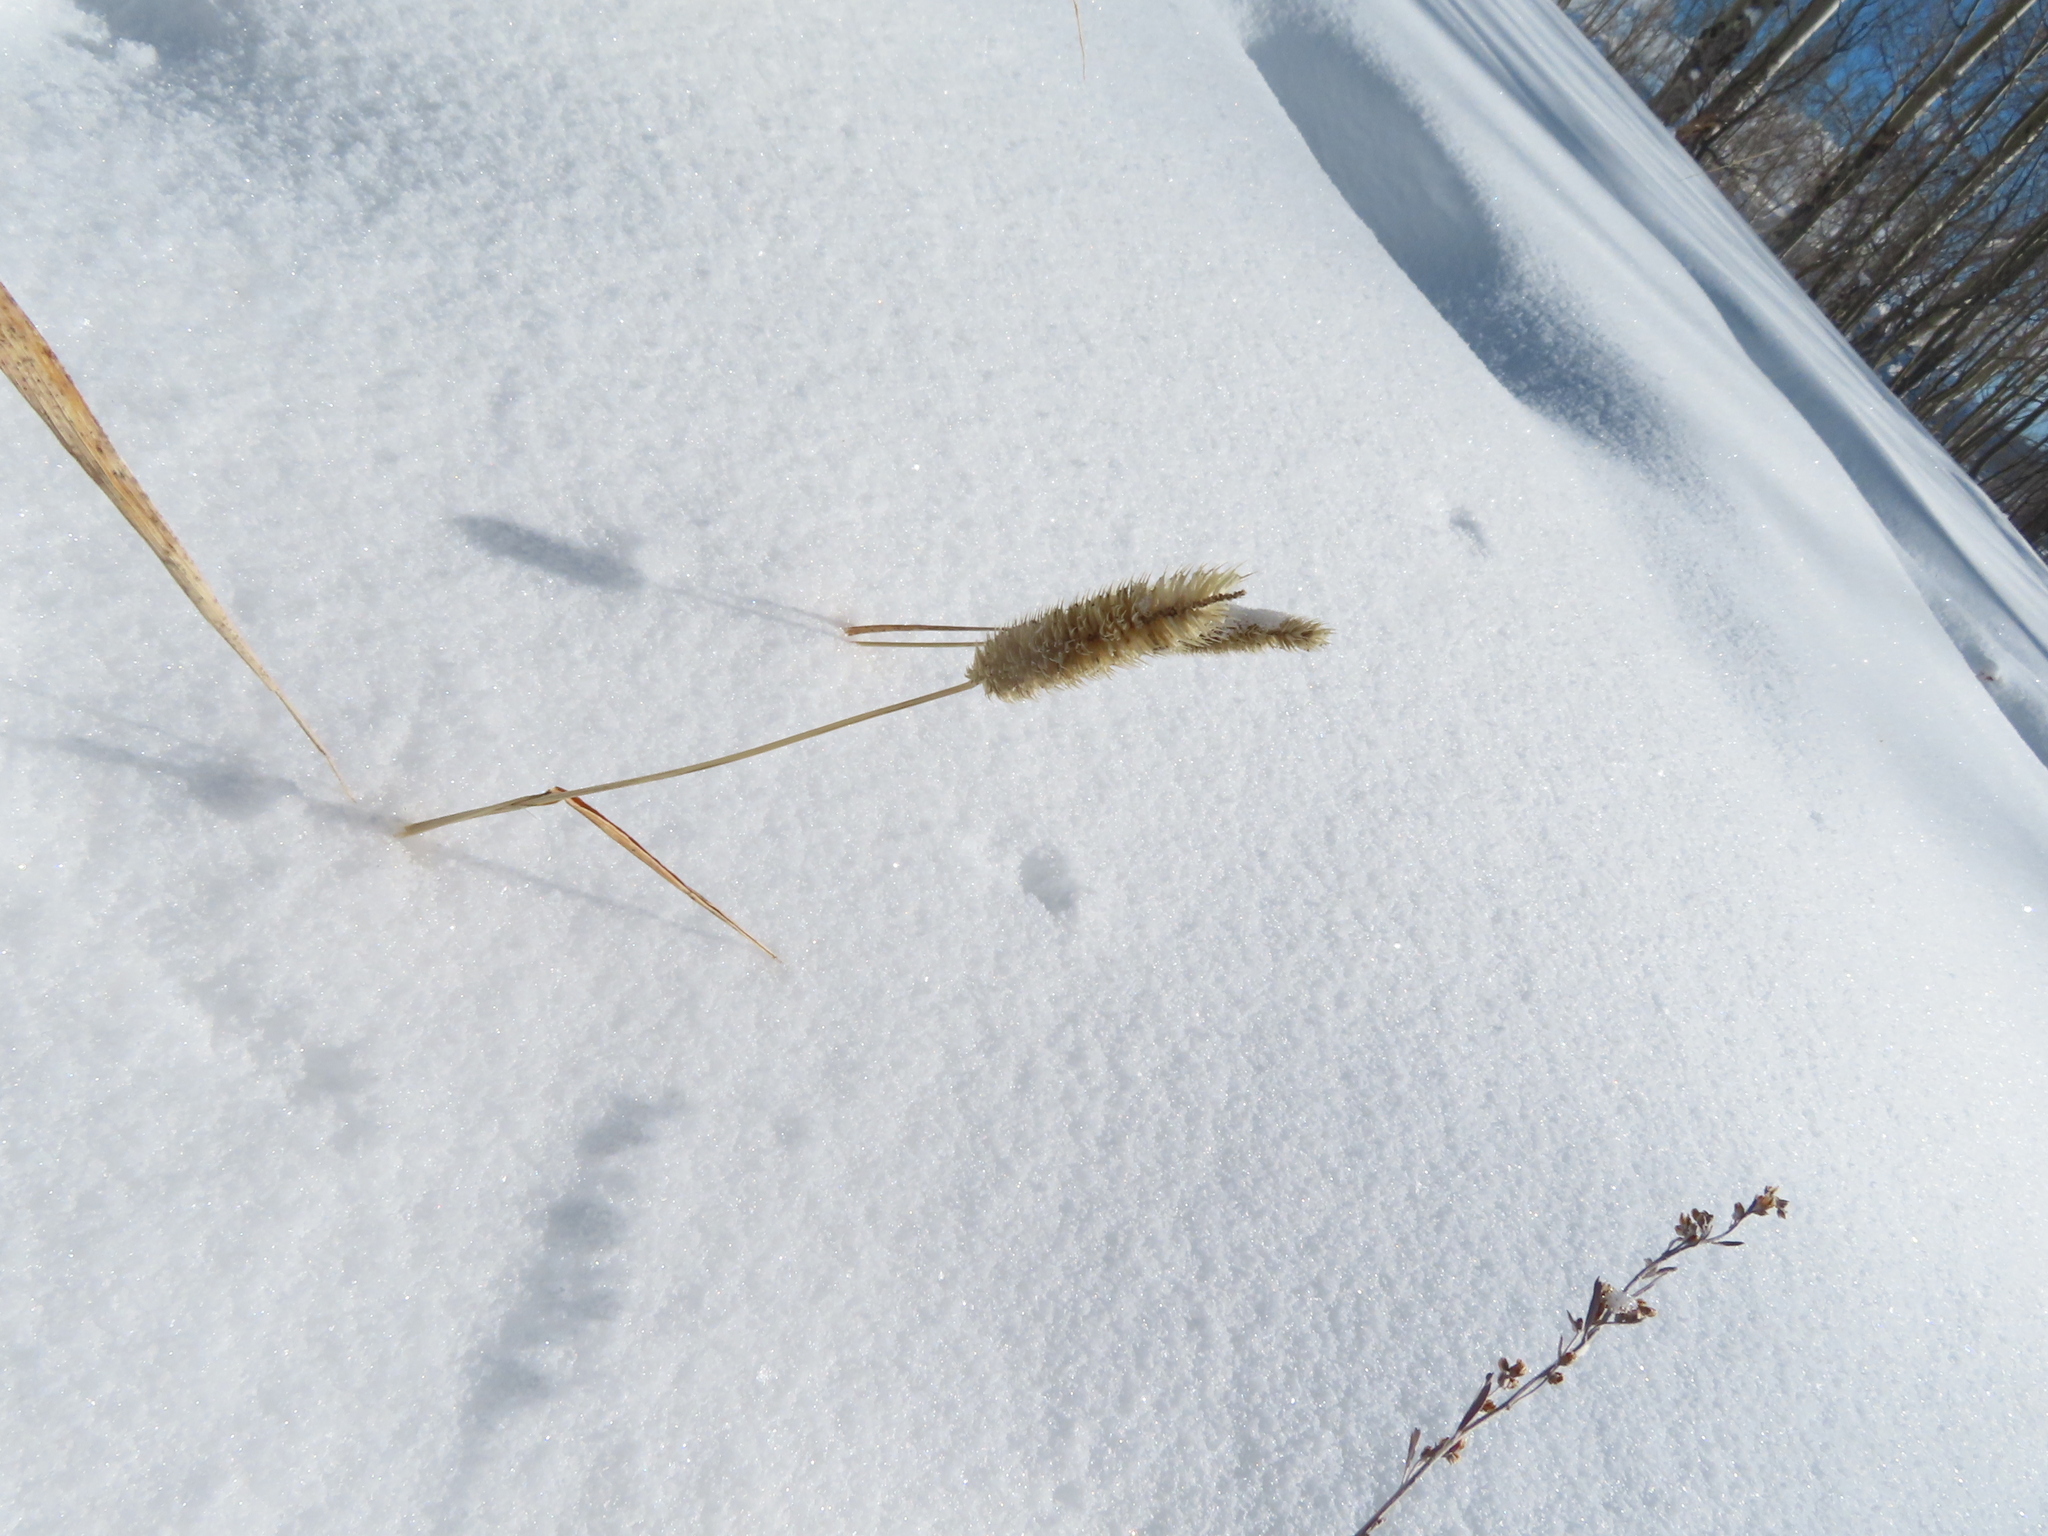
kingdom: Plantae
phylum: Tracheophyta
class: Liliopsida
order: Poales
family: Poaceae
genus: Phleum
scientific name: Phleum pratense
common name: Timothy grass
